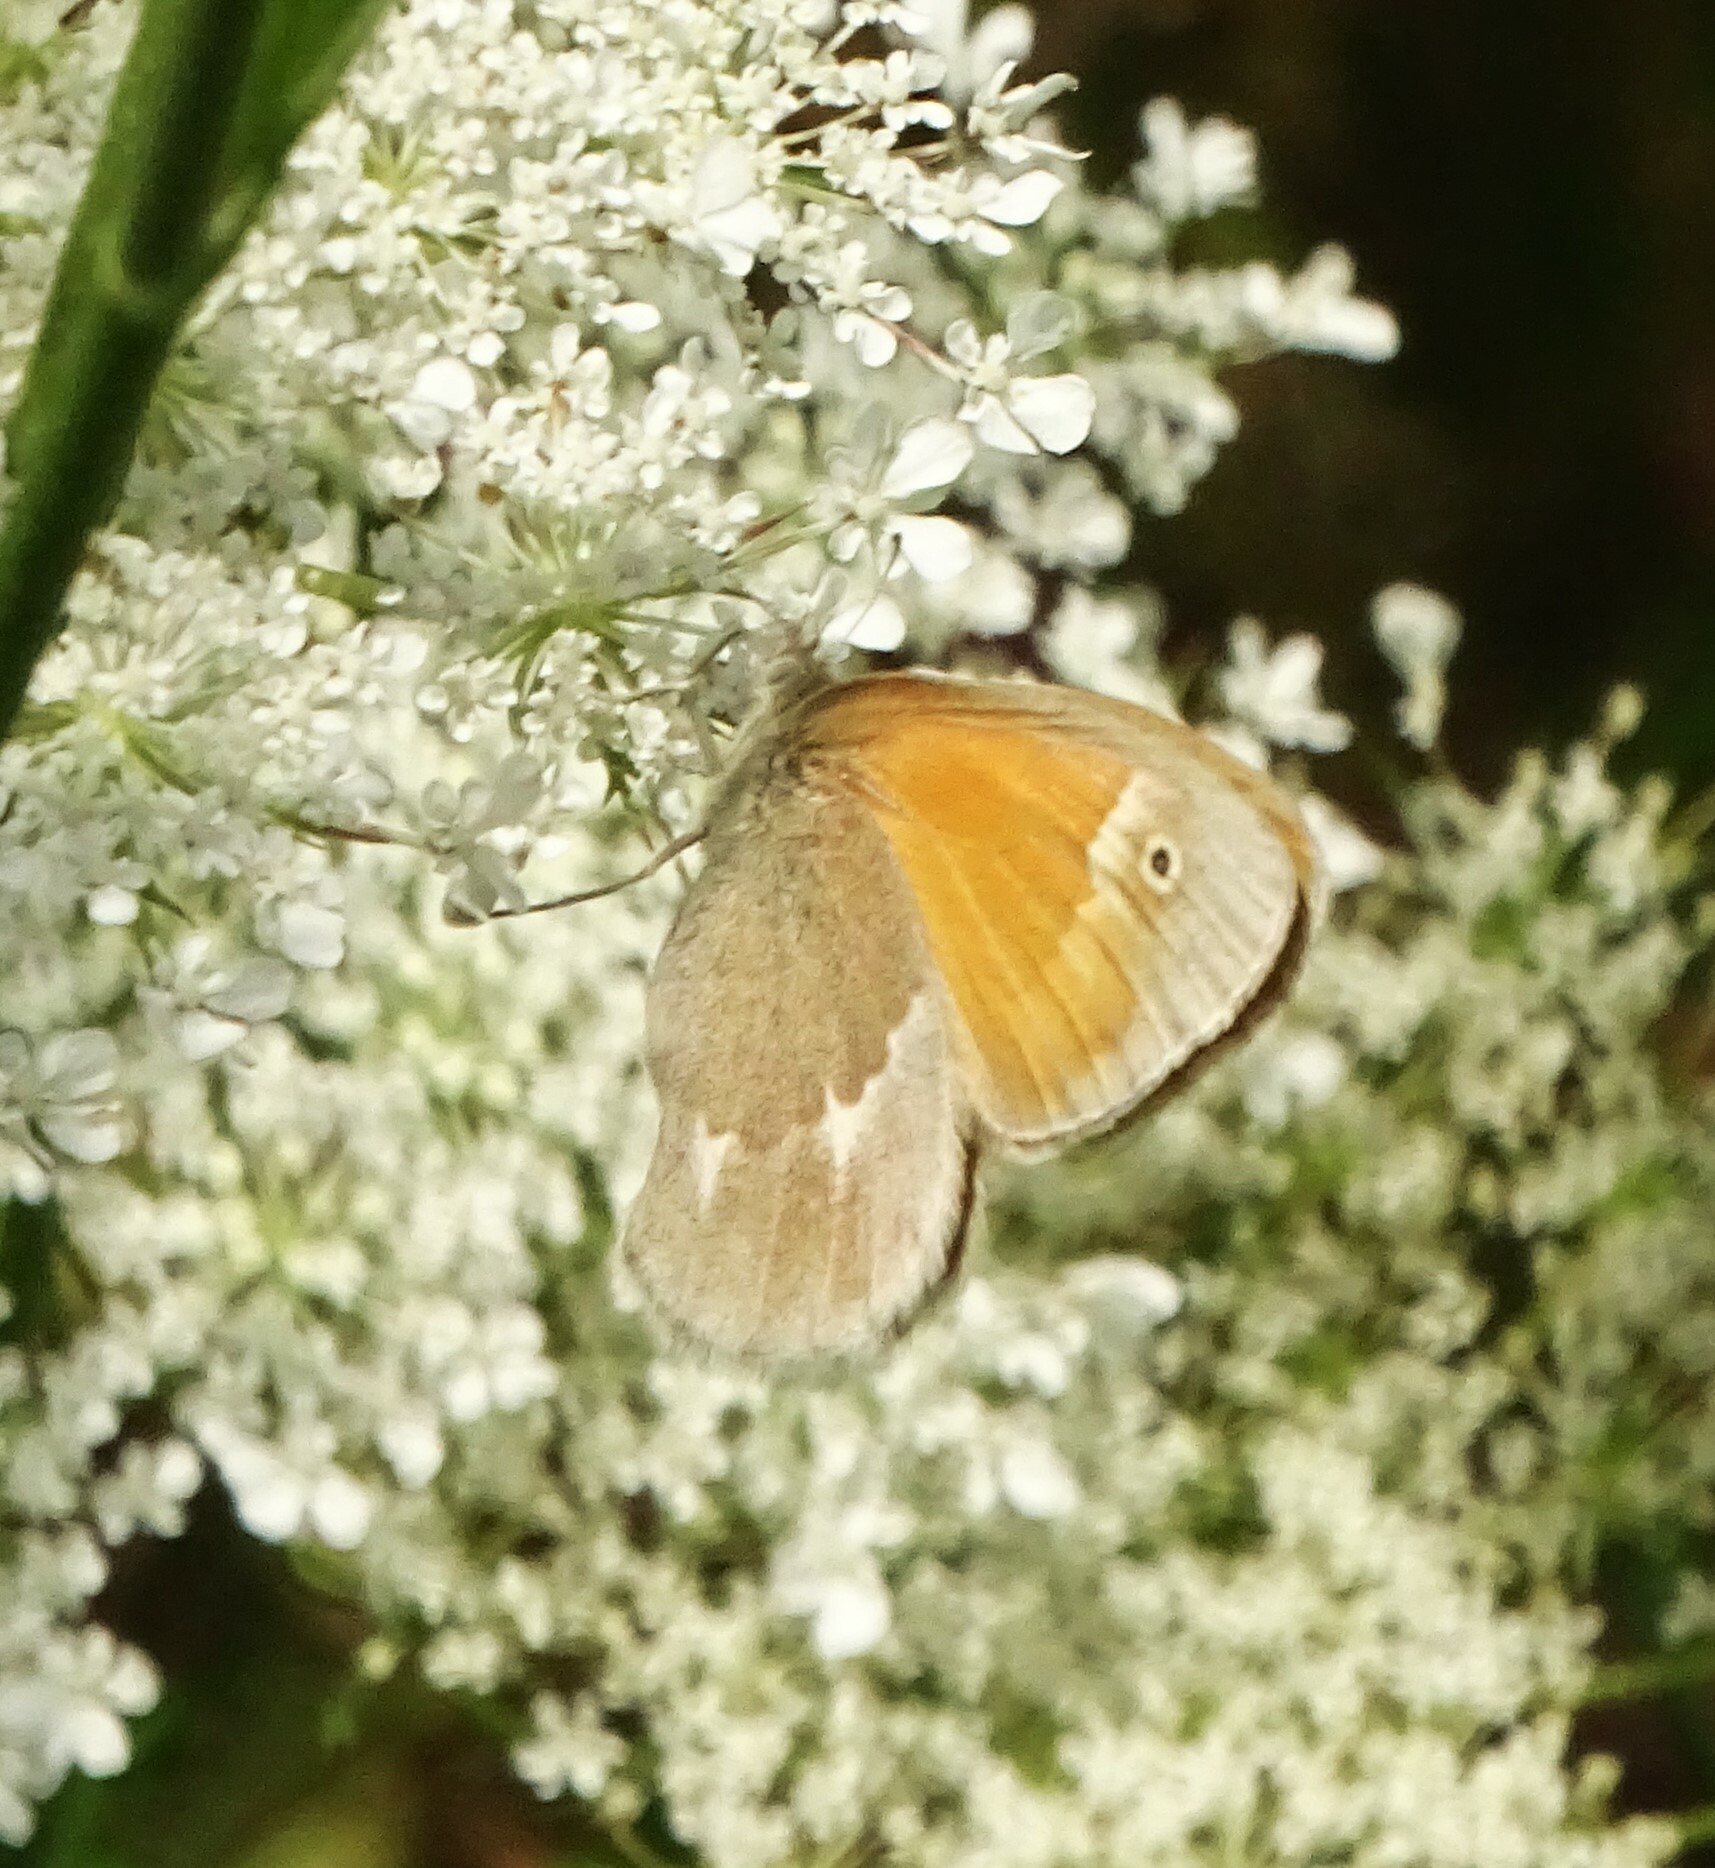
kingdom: Animalia
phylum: Arthropoda
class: Insecta
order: Lepidoptera
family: Nymphalidae
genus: Coenonympha
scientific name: Coenonympha california
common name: Common ringlet
